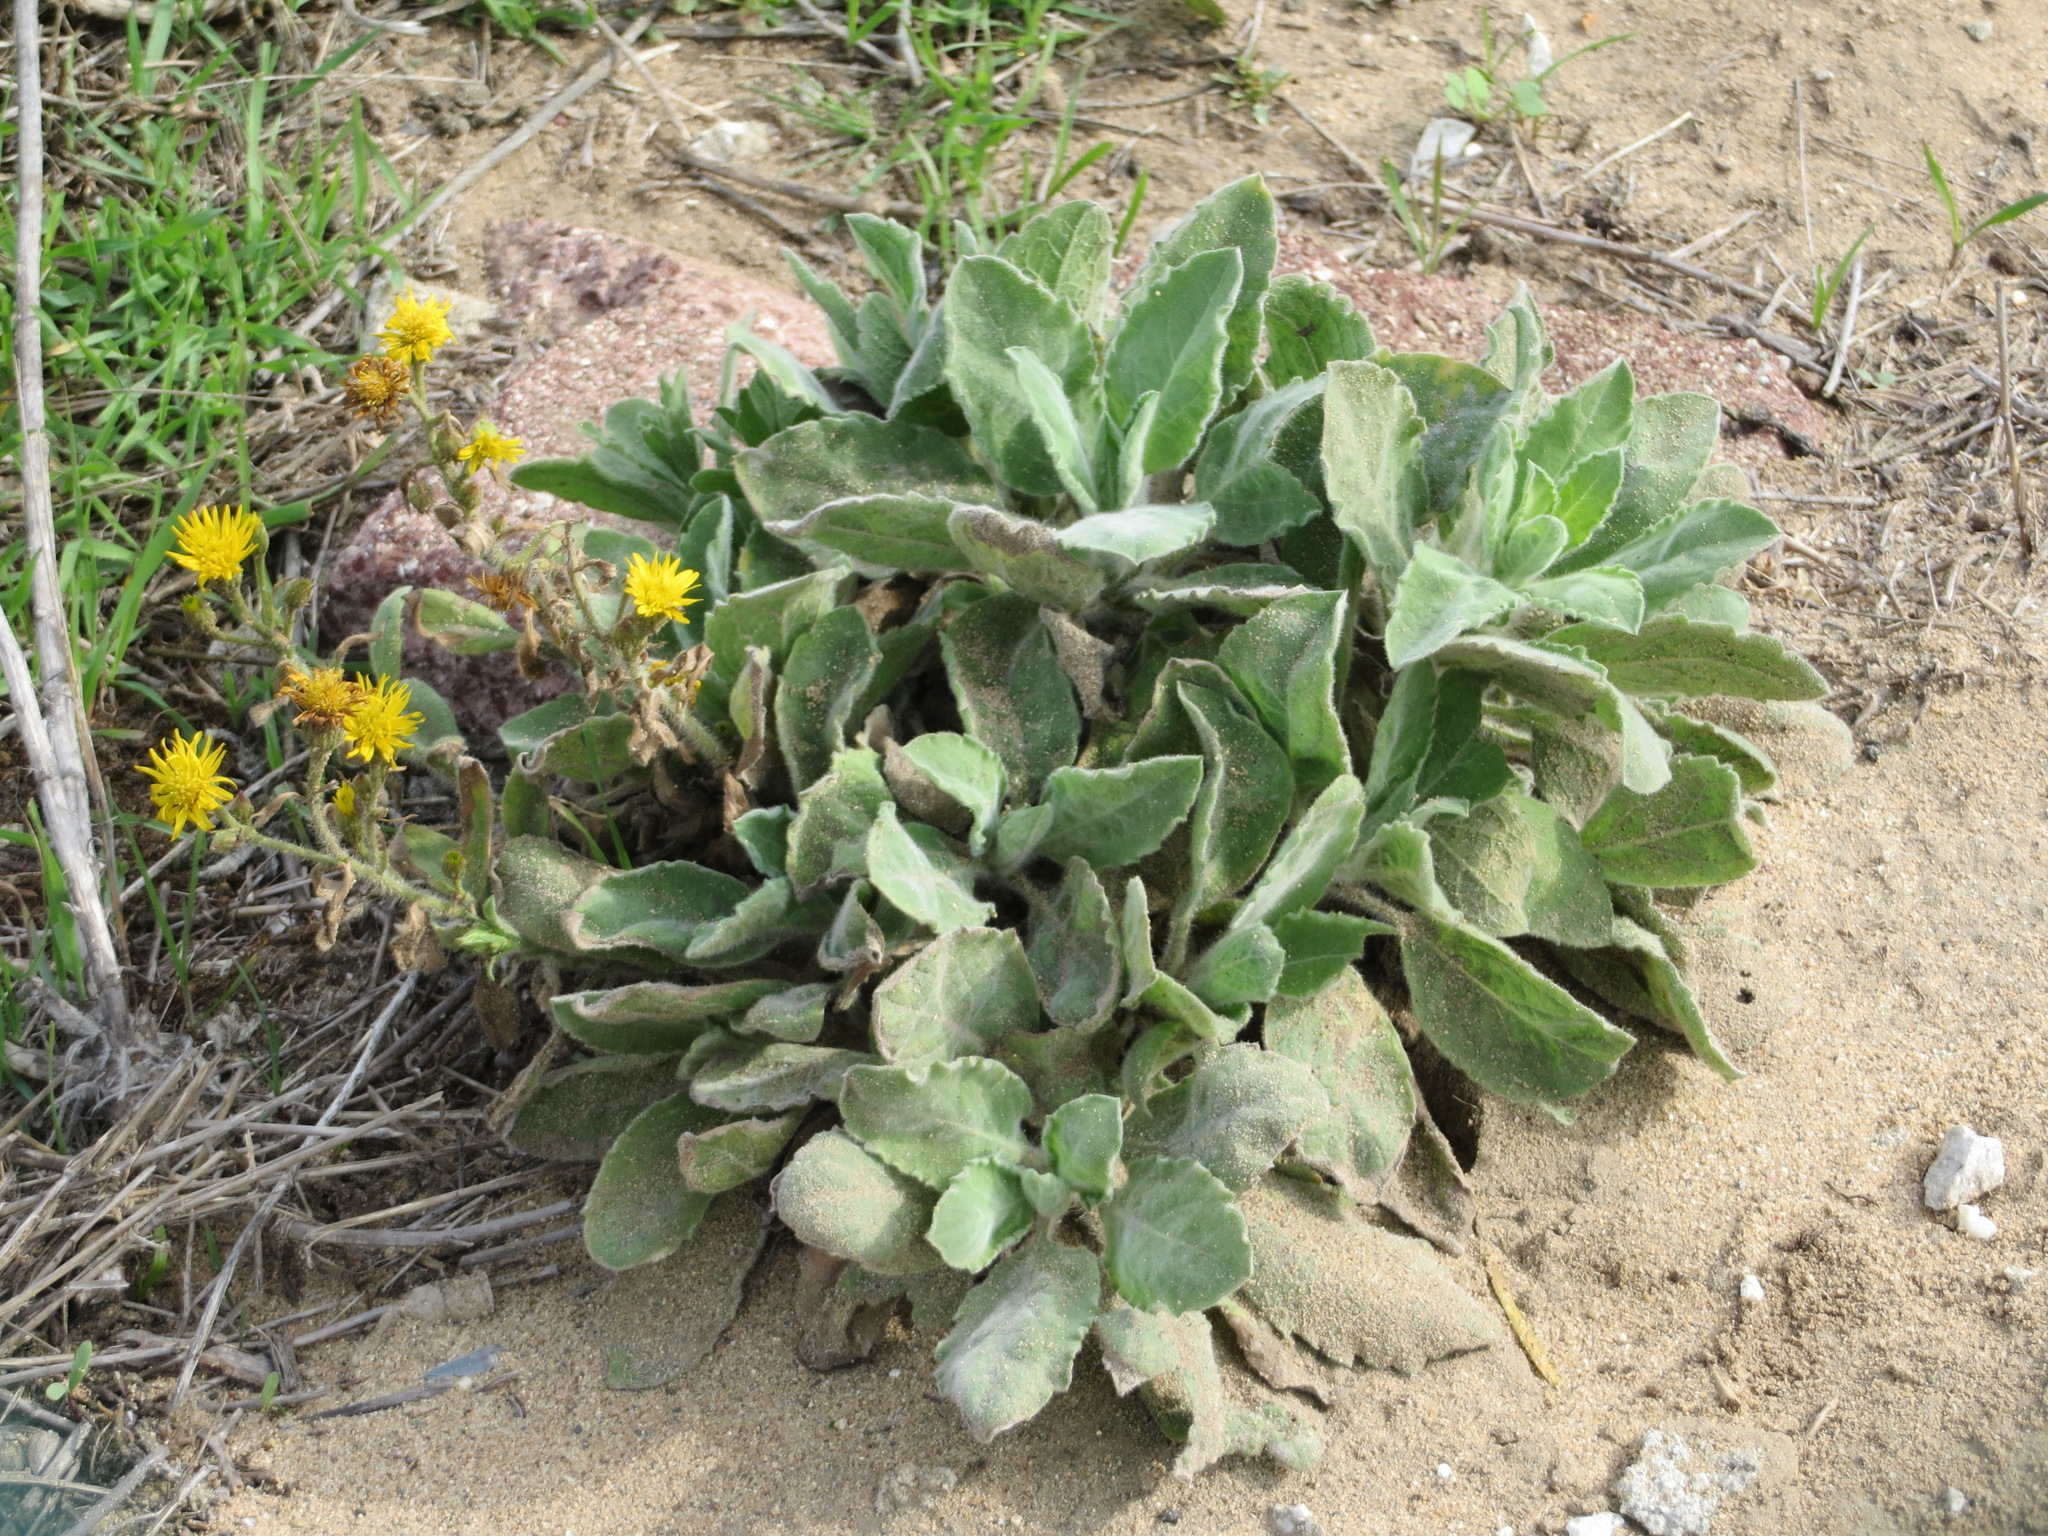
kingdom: Plantae
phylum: Tracheophyta
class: Magnoliopsida
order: Asterales
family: Asteraceae
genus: Heterotheca
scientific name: Heterotheca grandiflora
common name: Telegraphweed
